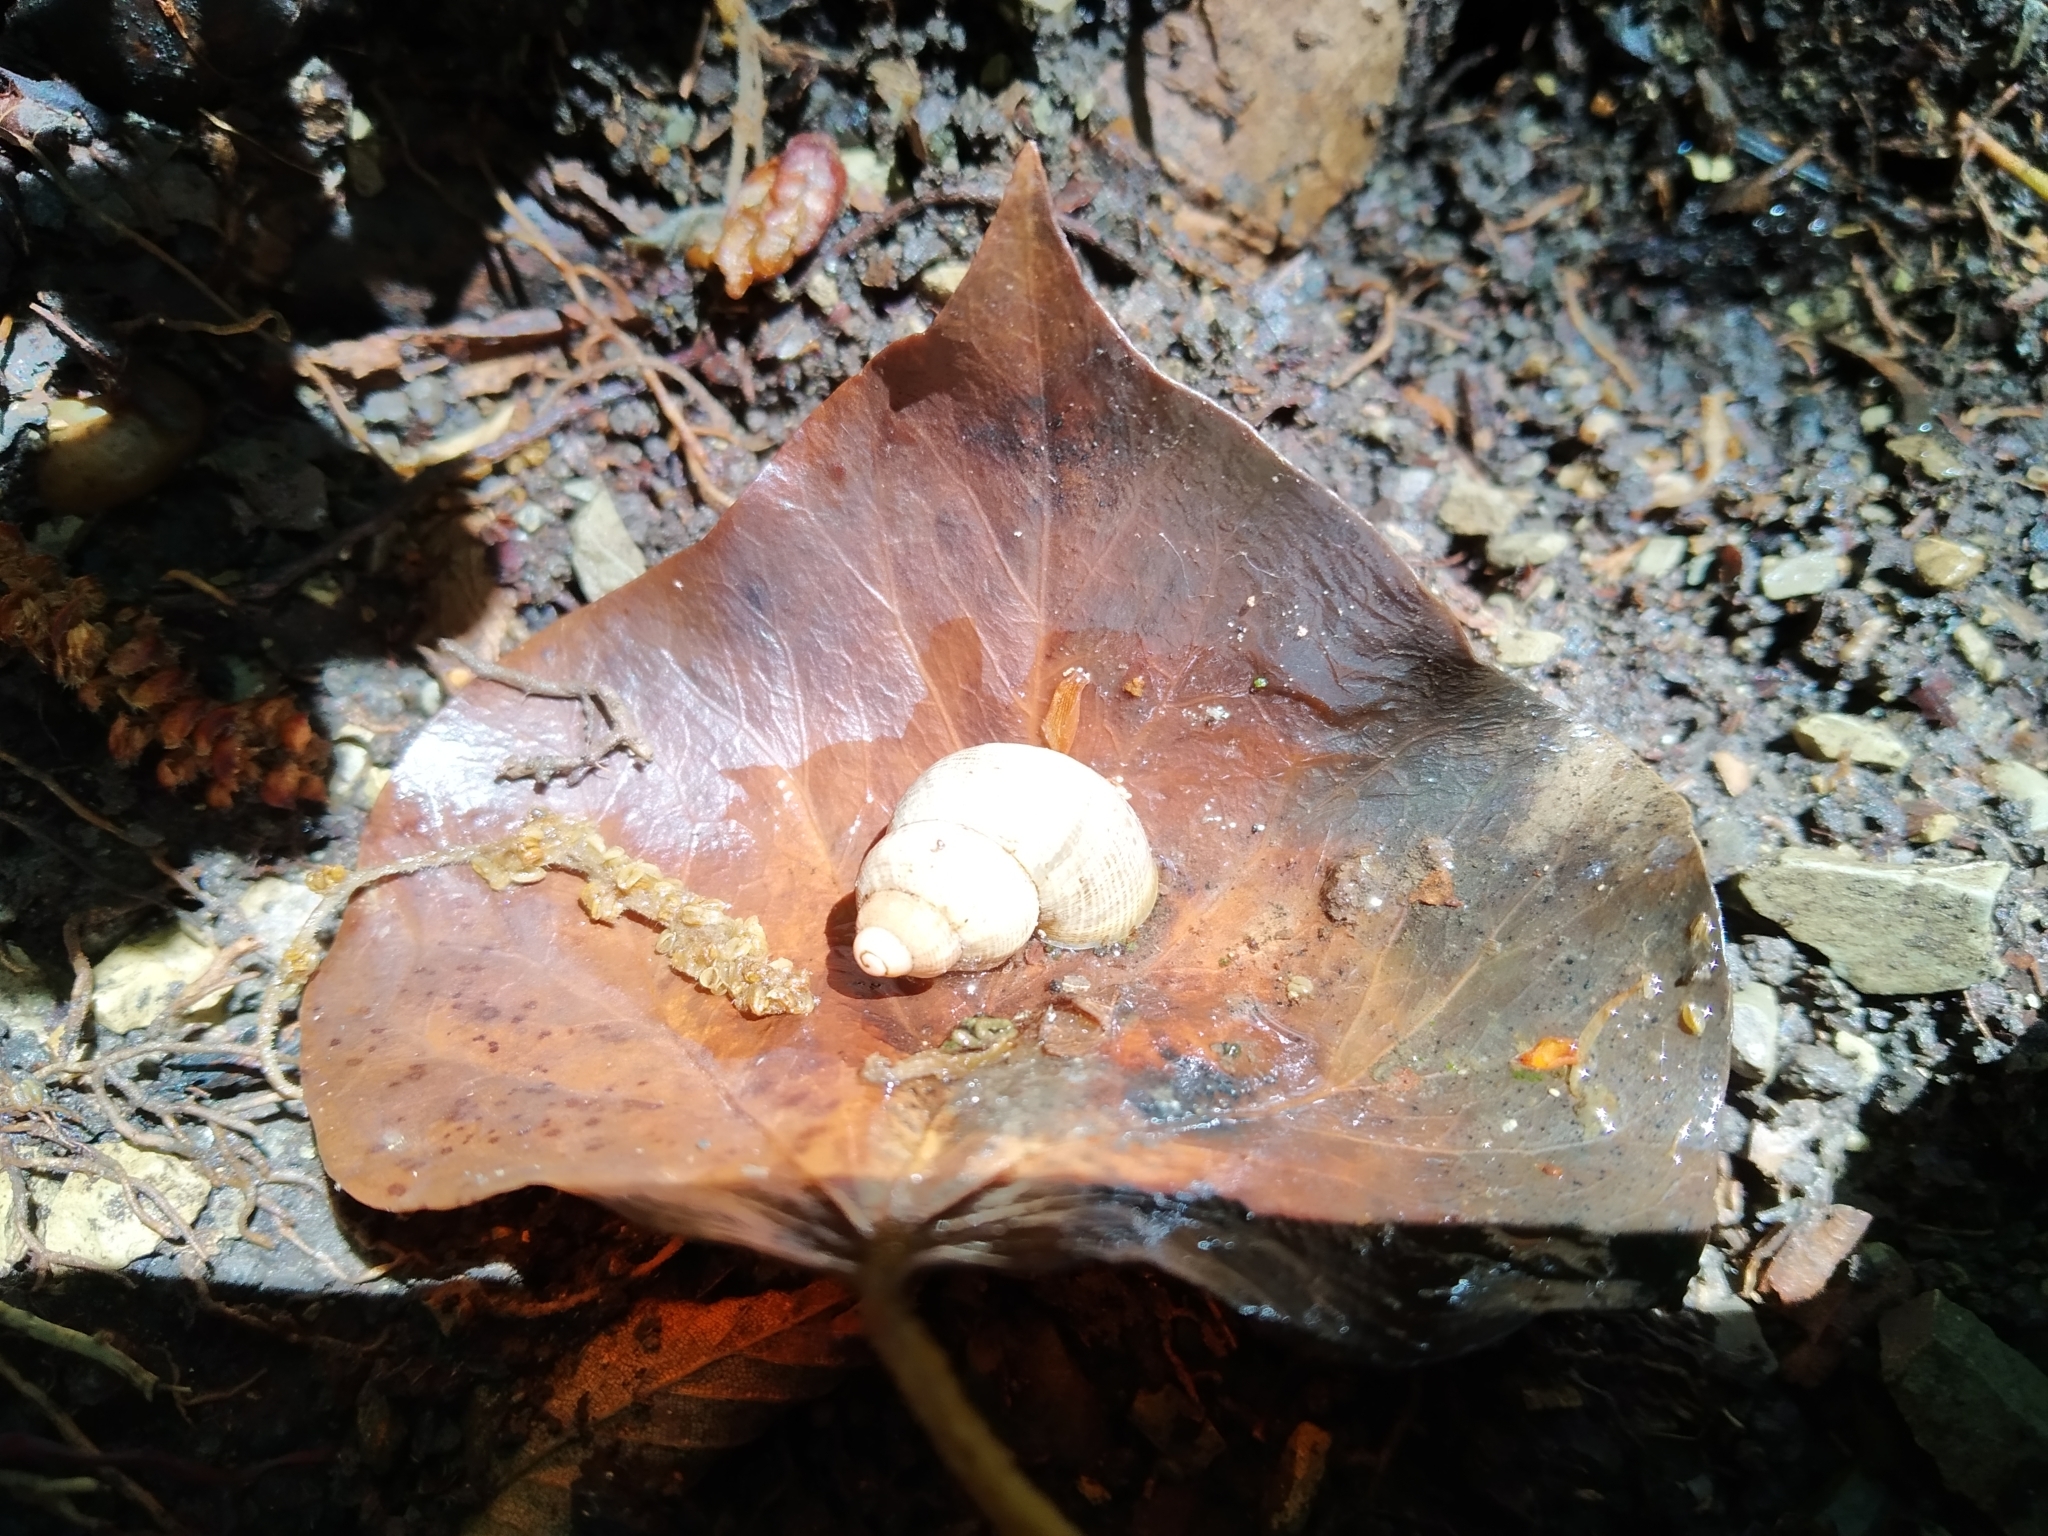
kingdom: Animalia
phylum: Mollusca
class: Gastropoda
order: Littorinimorpha
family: Pomatiidae
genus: Pomatias
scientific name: Pomatias elegans
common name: Red-mouthed snail
